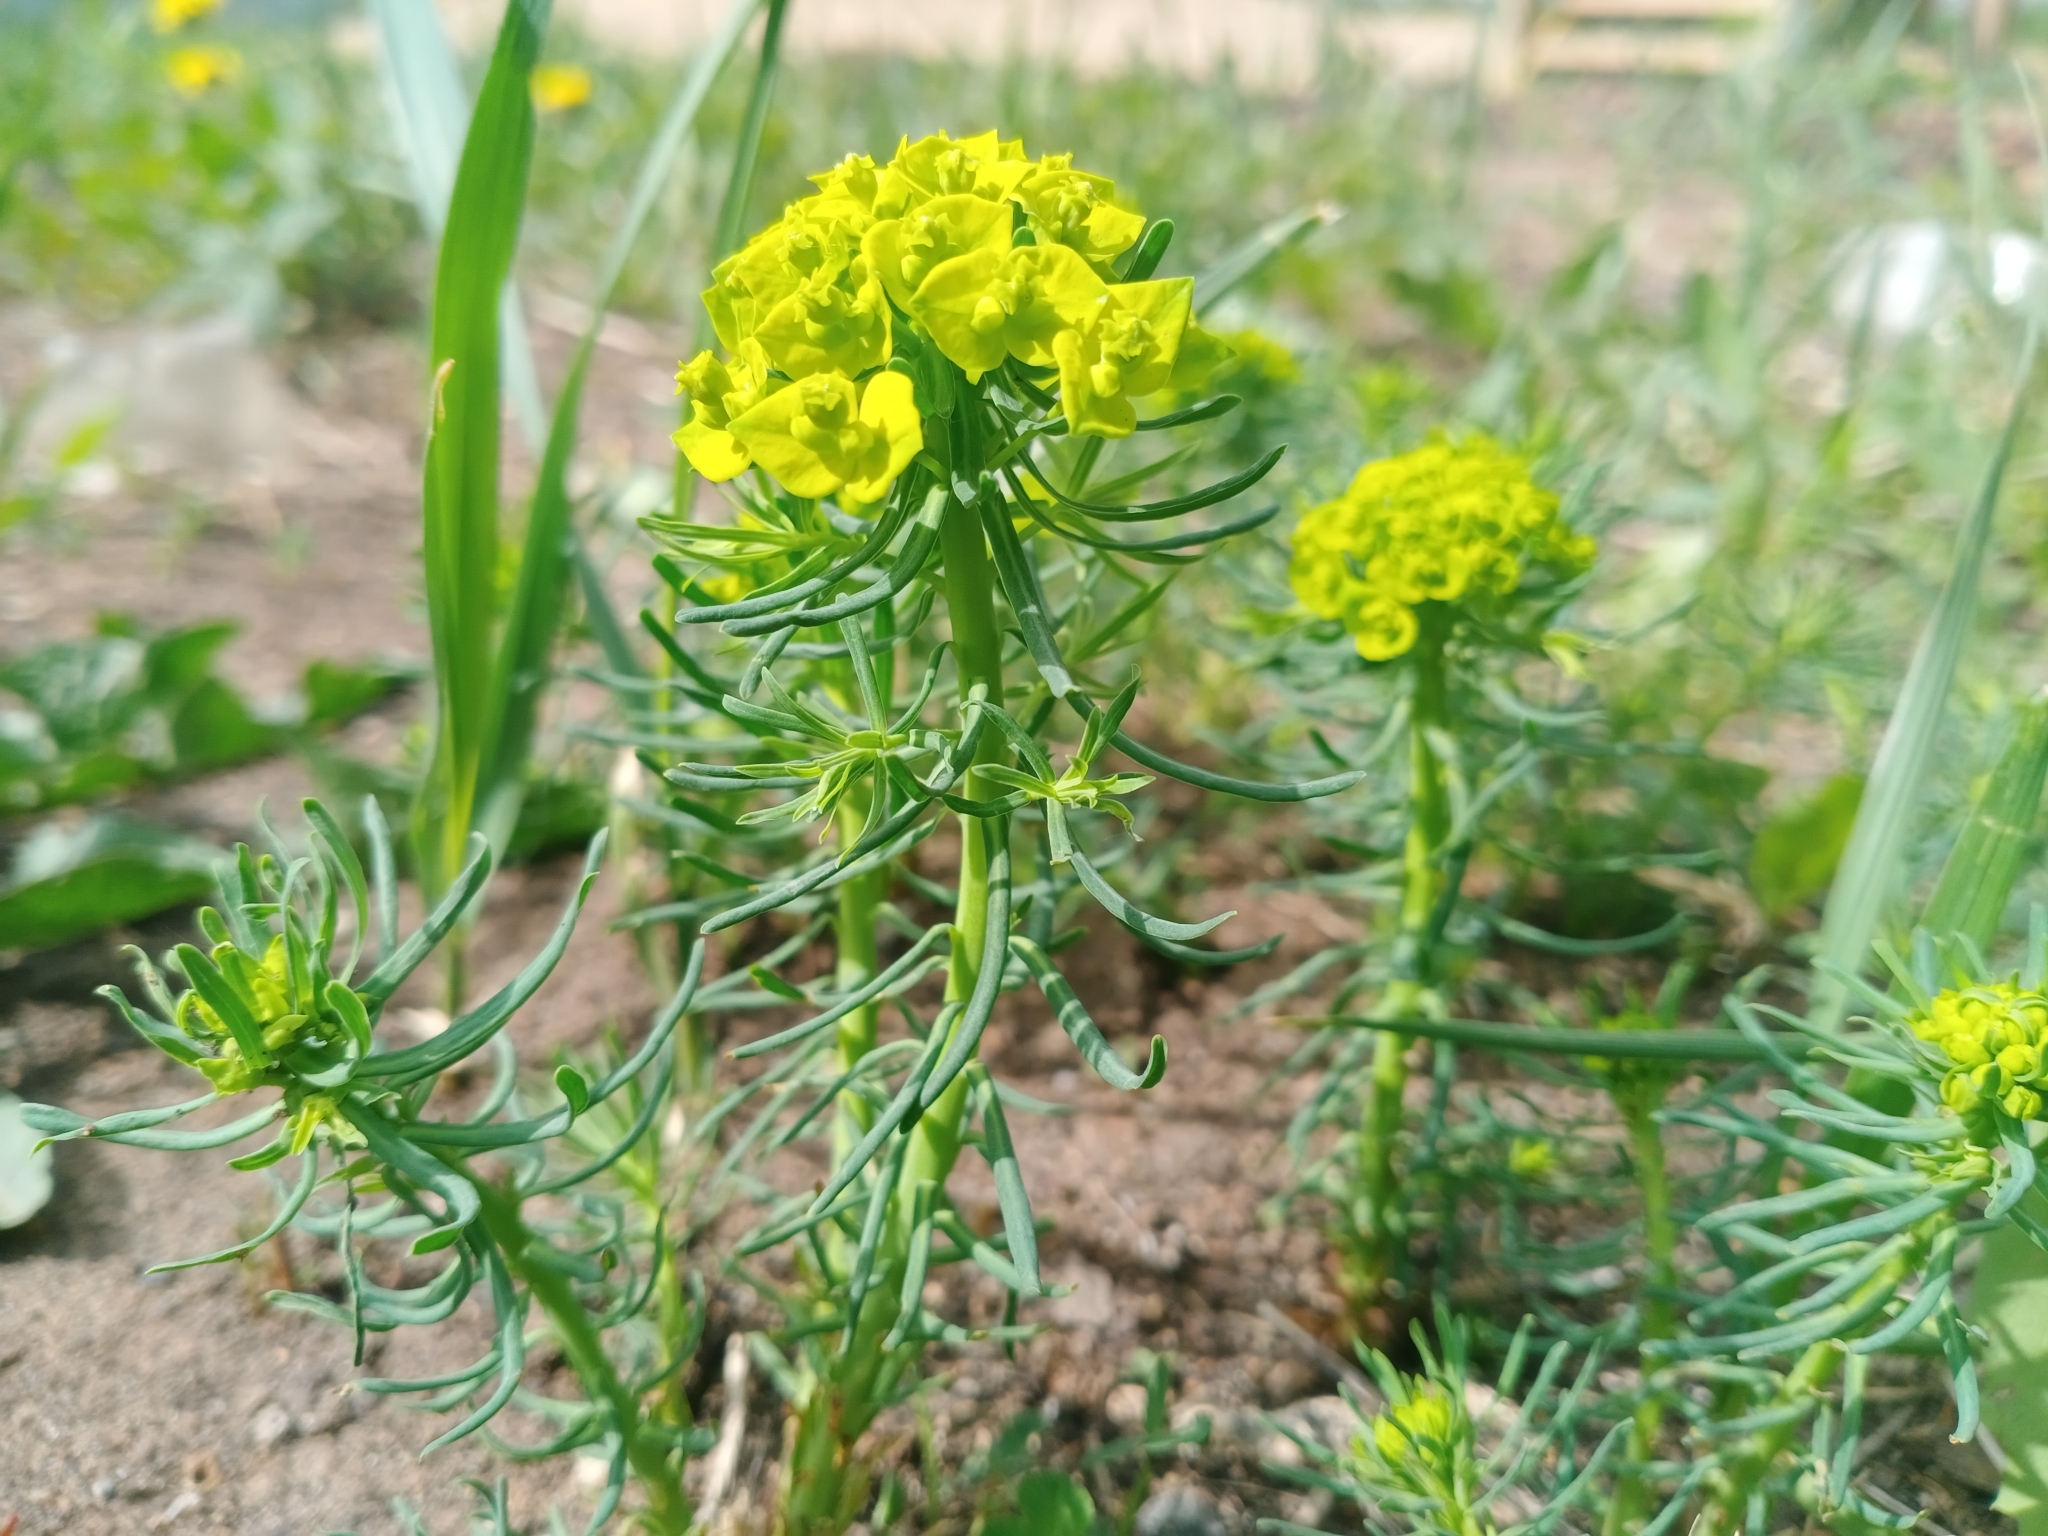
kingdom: Plantae
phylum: Tracheophyta
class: Magnoliopsida
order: Malpighiales
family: Euphorbiaceae
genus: Euphorbia
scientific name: Euphorbia cyparissias
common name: Cypress spurge
